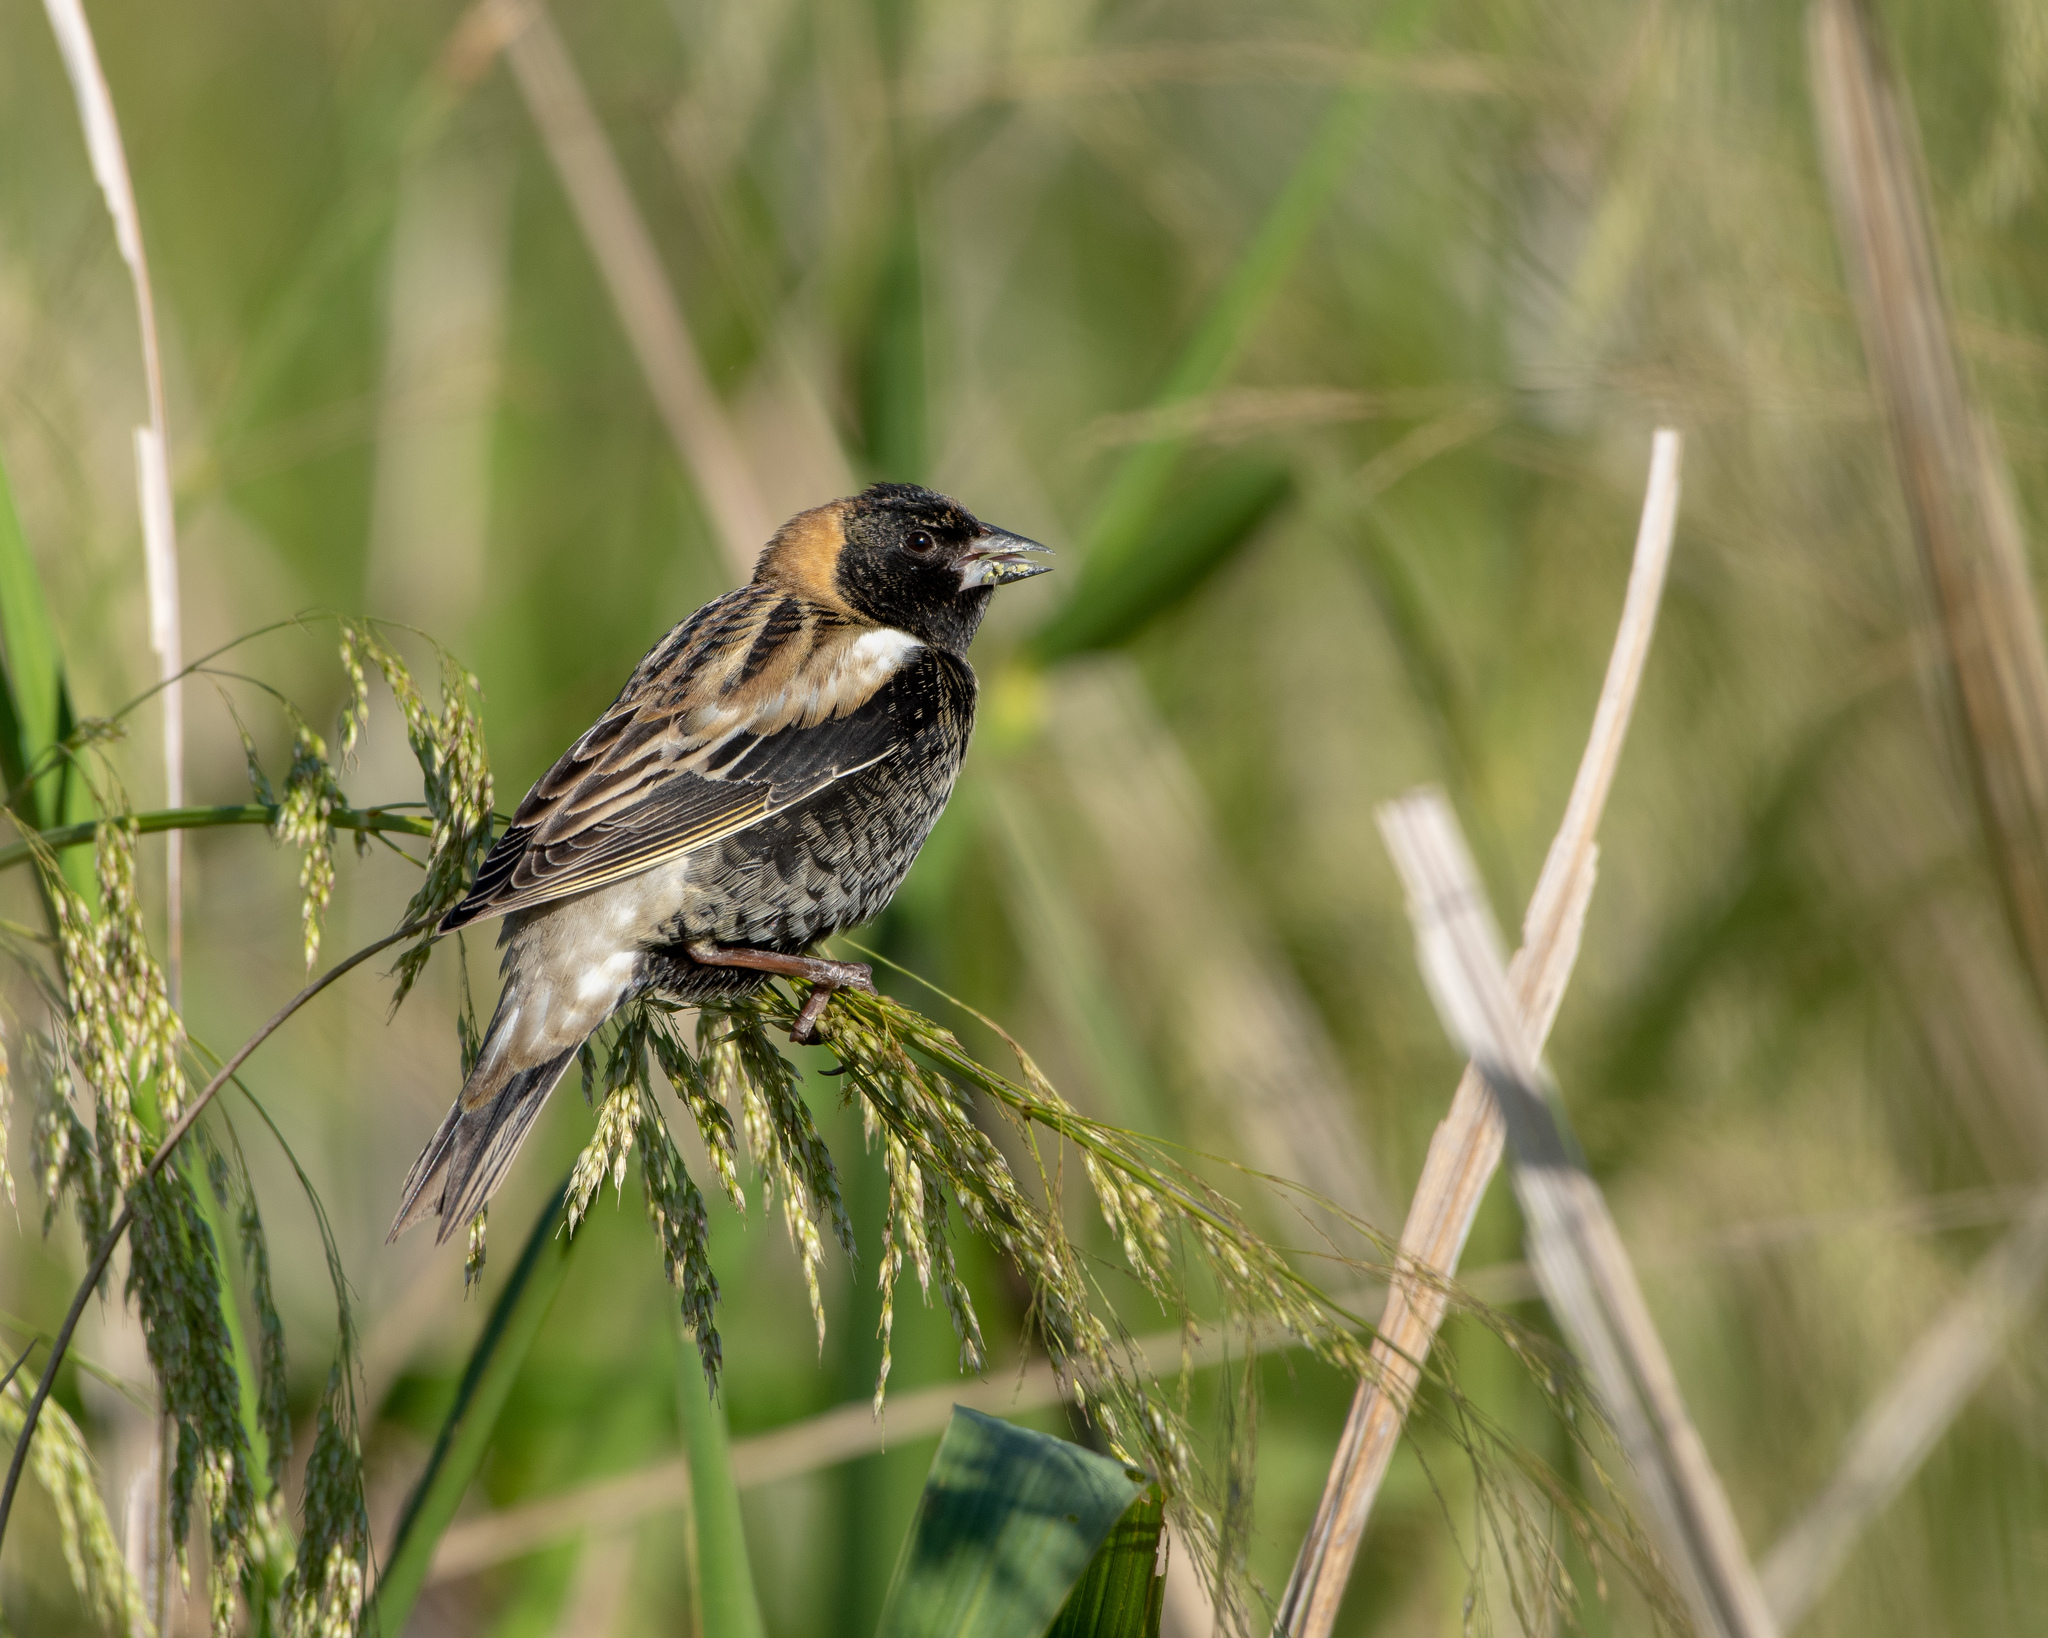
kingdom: Animalia
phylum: Chordata
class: Aves
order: Passeriformes
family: Icteridae
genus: Dolichonyx
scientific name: Dolichonyx oryzivorus
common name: Bobolink
